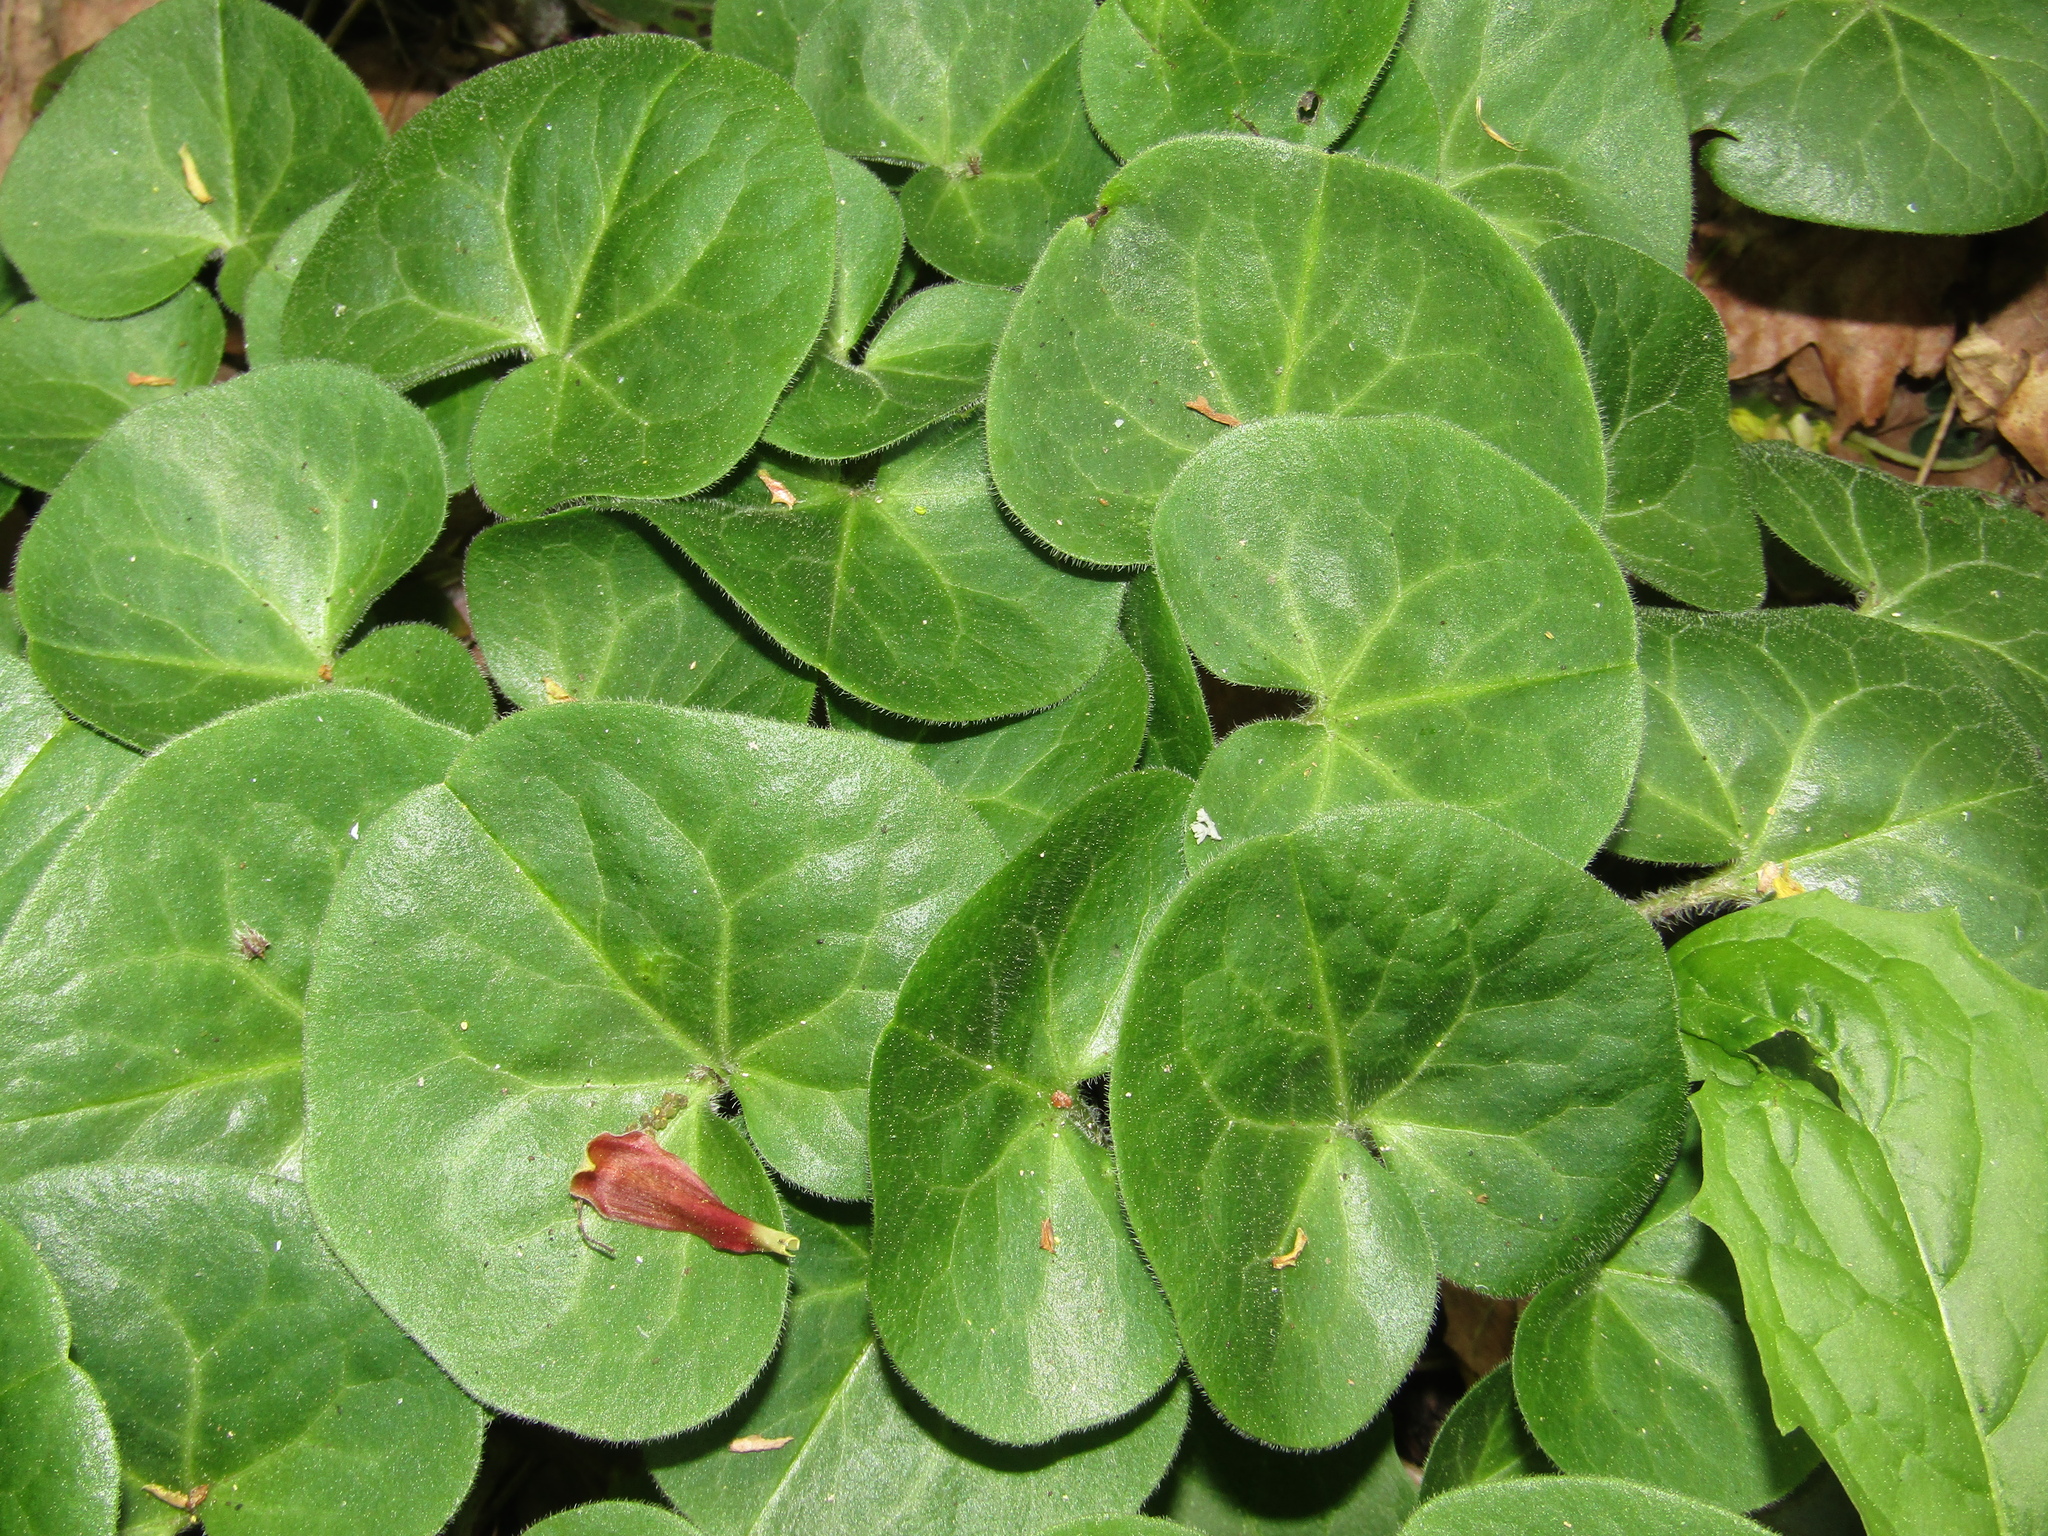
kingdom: Plantae
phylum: Tracheophyta
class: Magnoliopsida
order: Piperales
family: Aristolochiaceae
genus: Asarum
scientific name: Asarum europaeum
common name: Asarabacca
